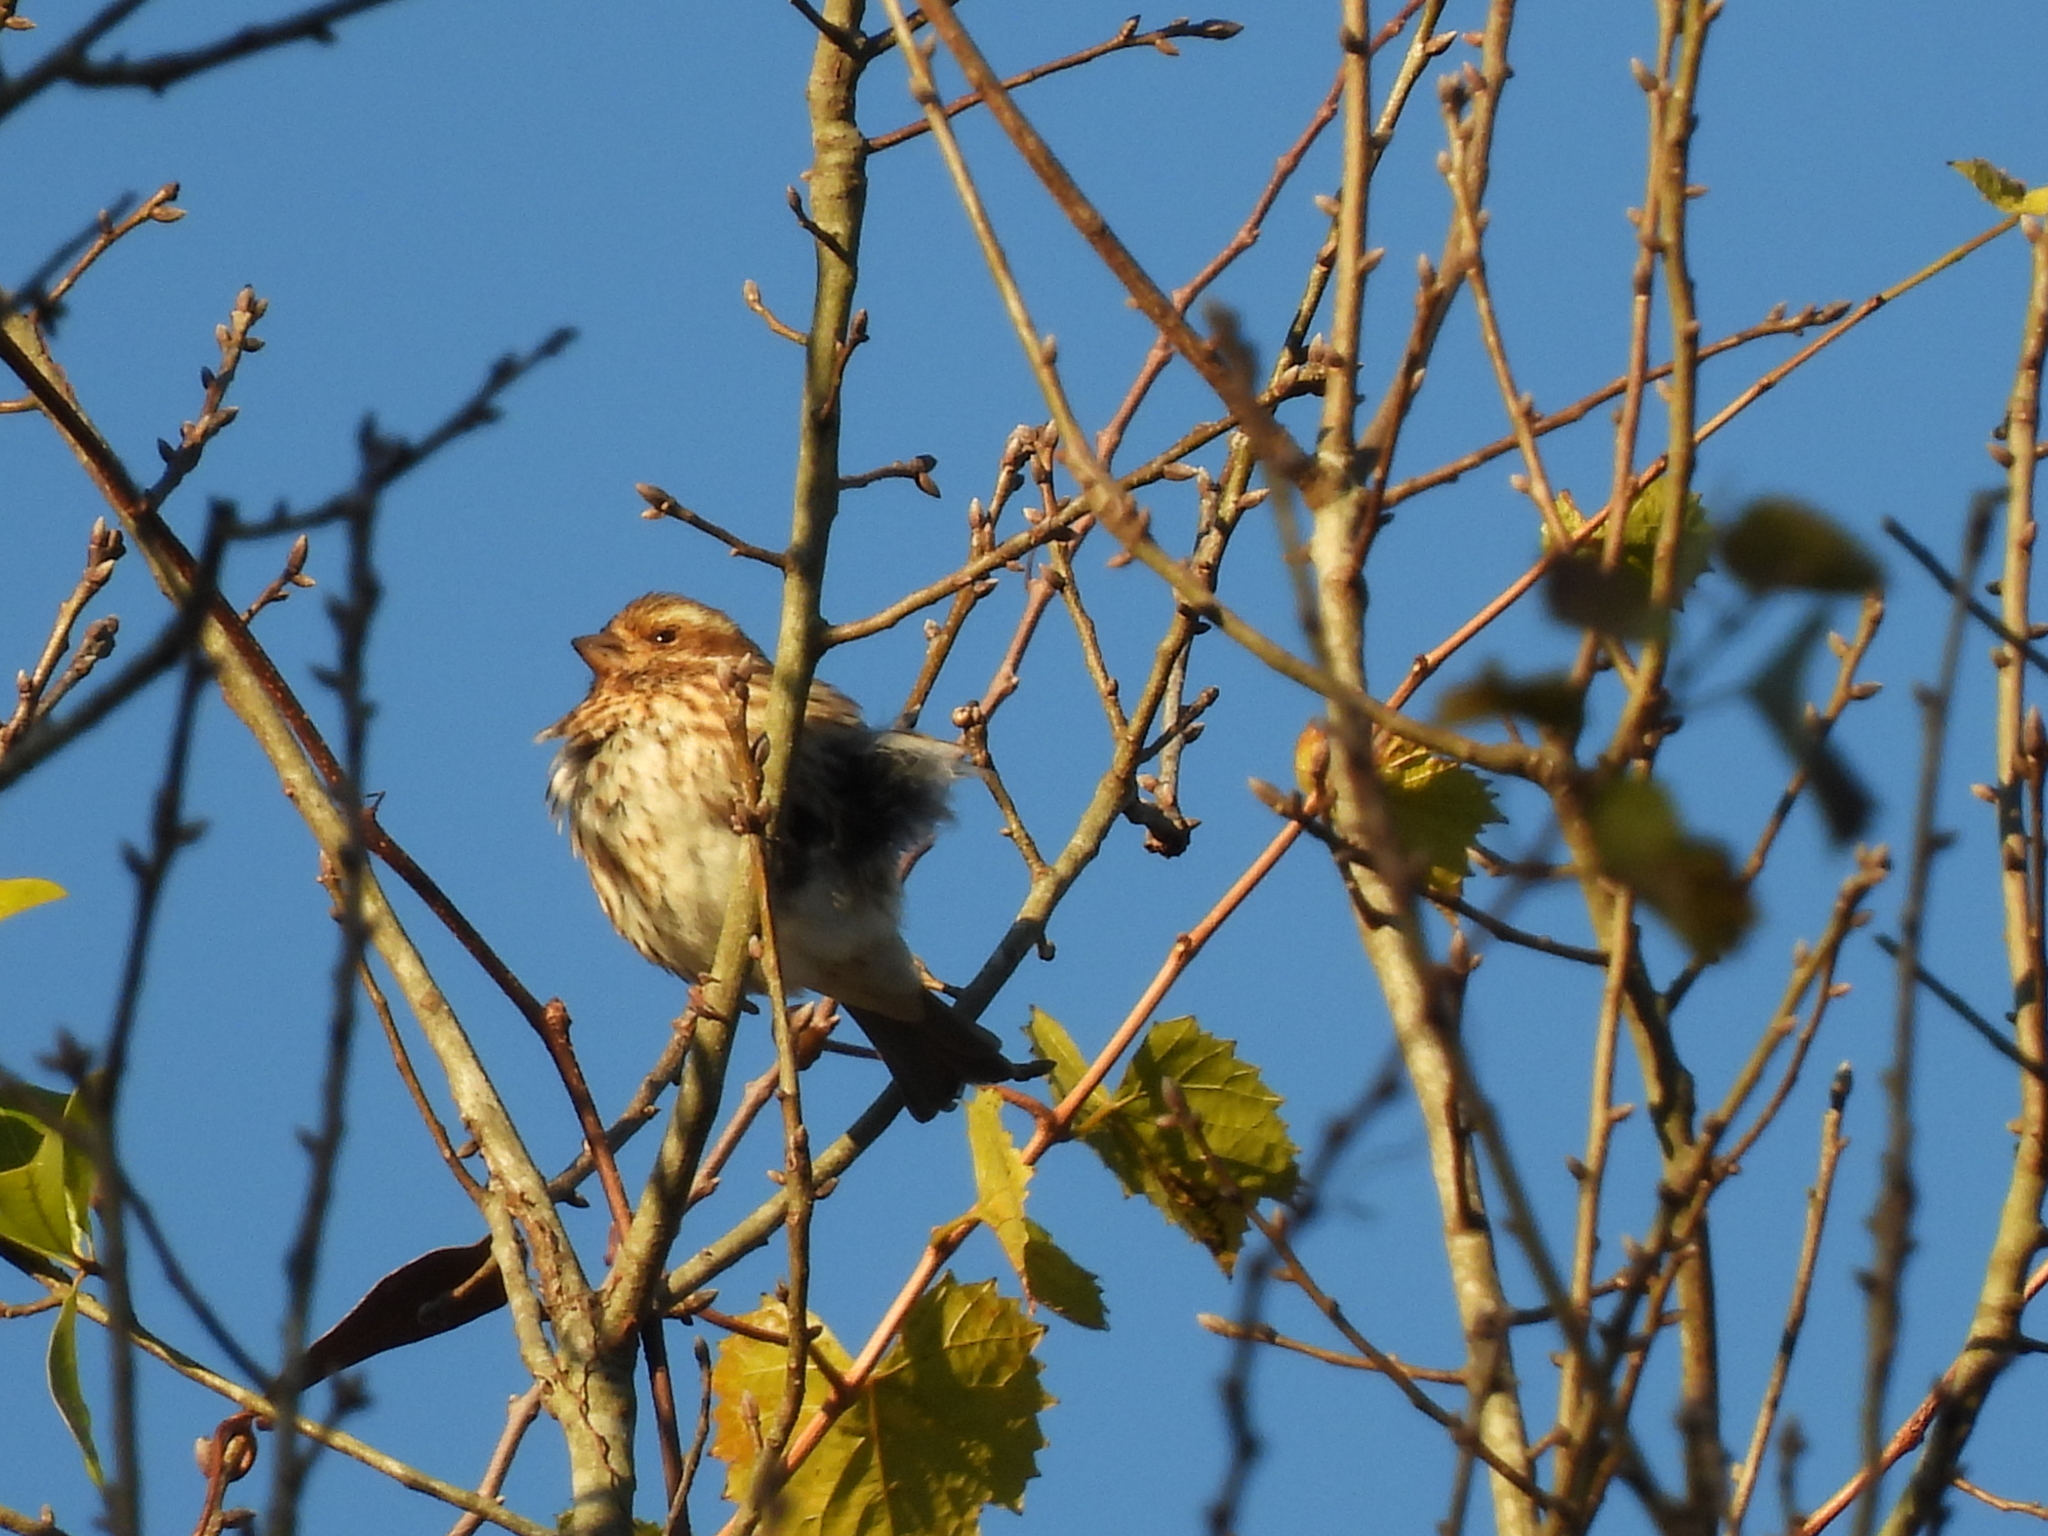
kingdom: Animalia
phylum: Chordata
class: Aves
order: Passeriformes
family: Fringillidae
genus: Haemorhous
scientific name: Haemorhous purpureus
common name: Purple finch
